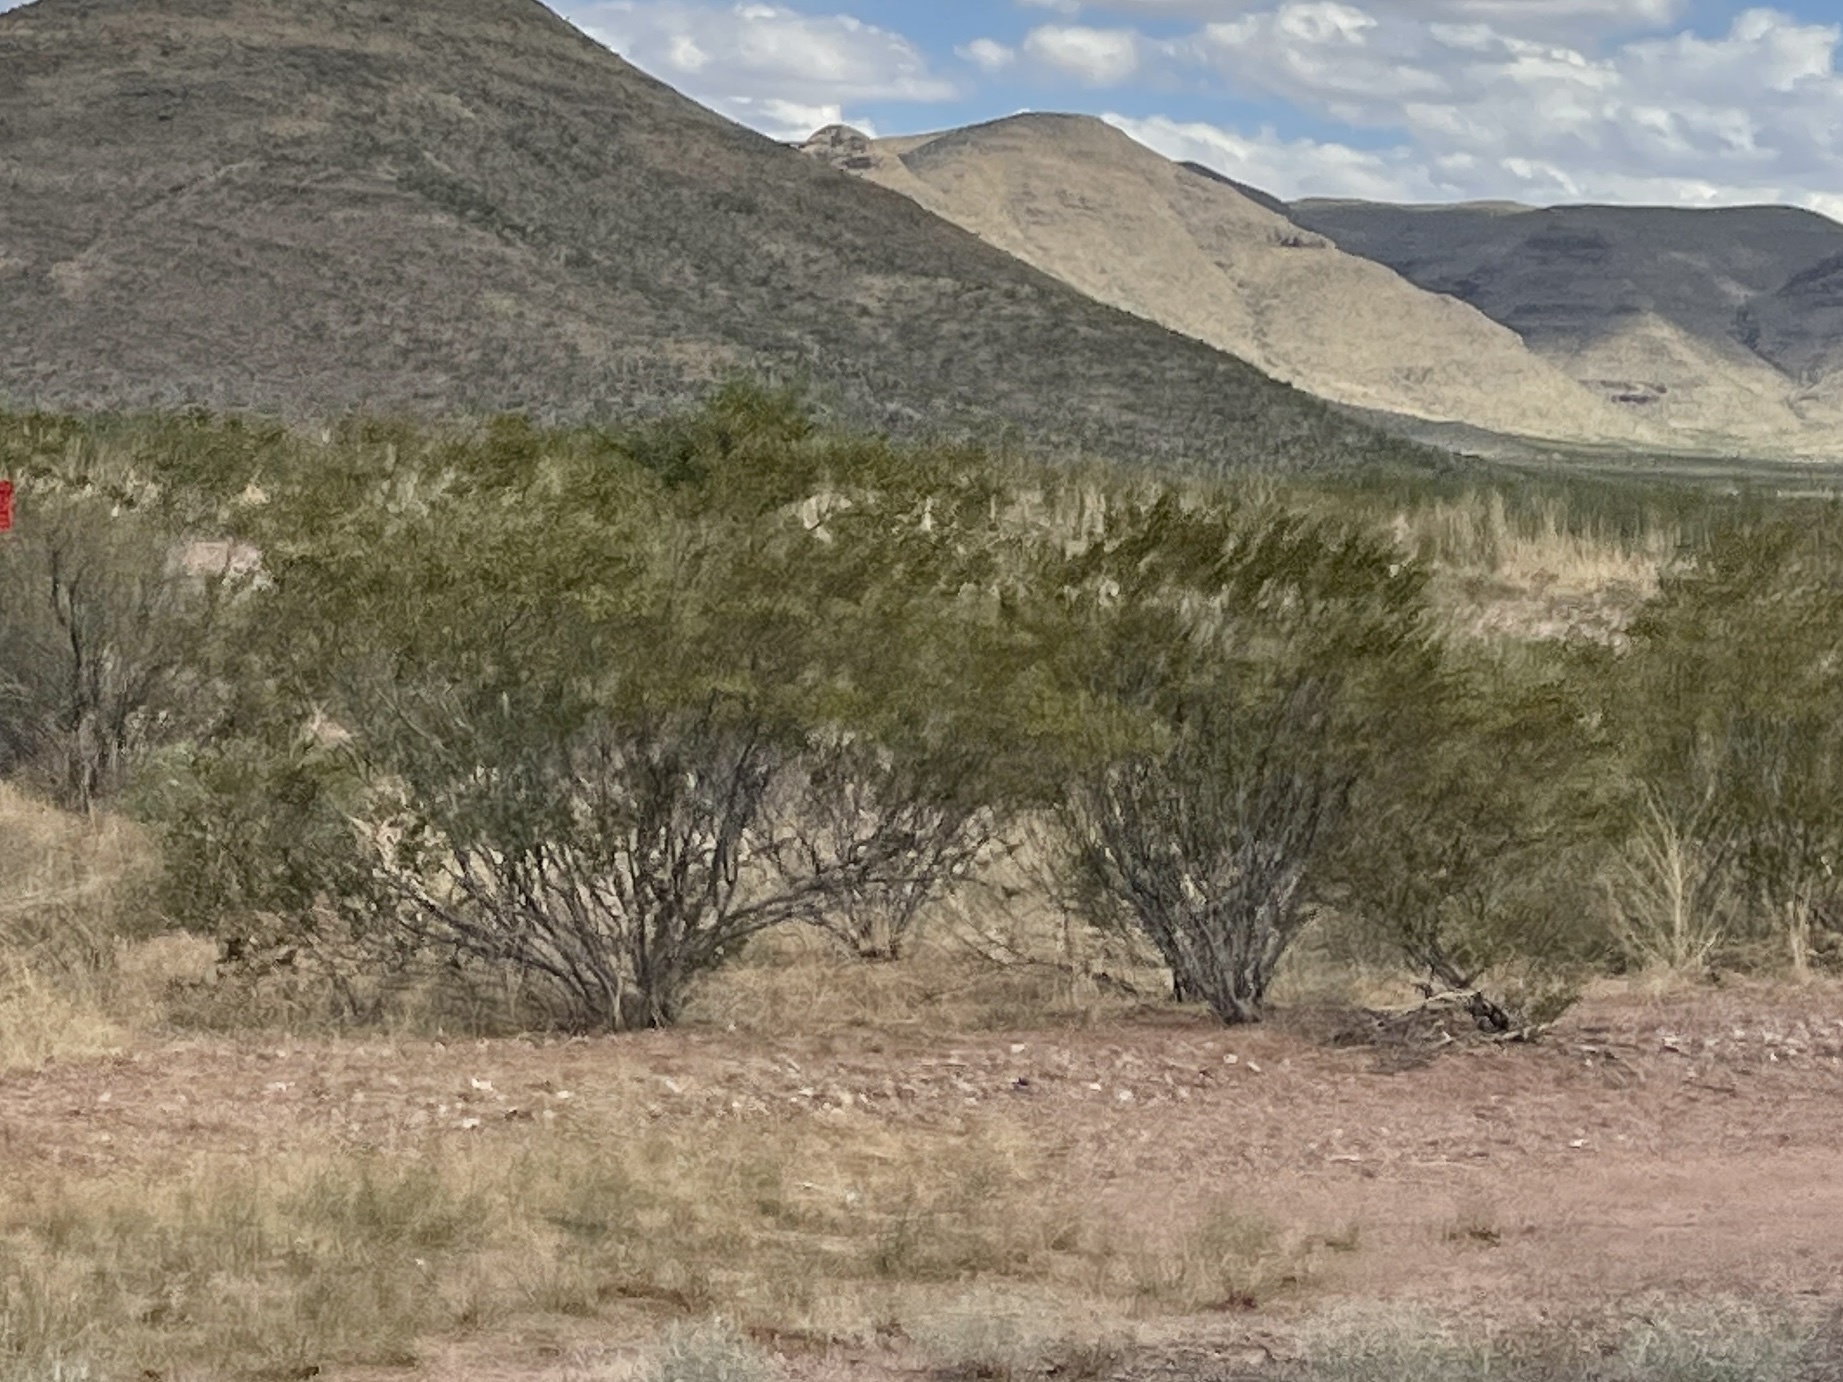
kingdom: Plantae
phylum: Tracheophyta
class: Magnoliopsida
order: Zygophyllales
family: Zygophyllaceae
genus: Larrea
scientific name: Larrea tridentata
